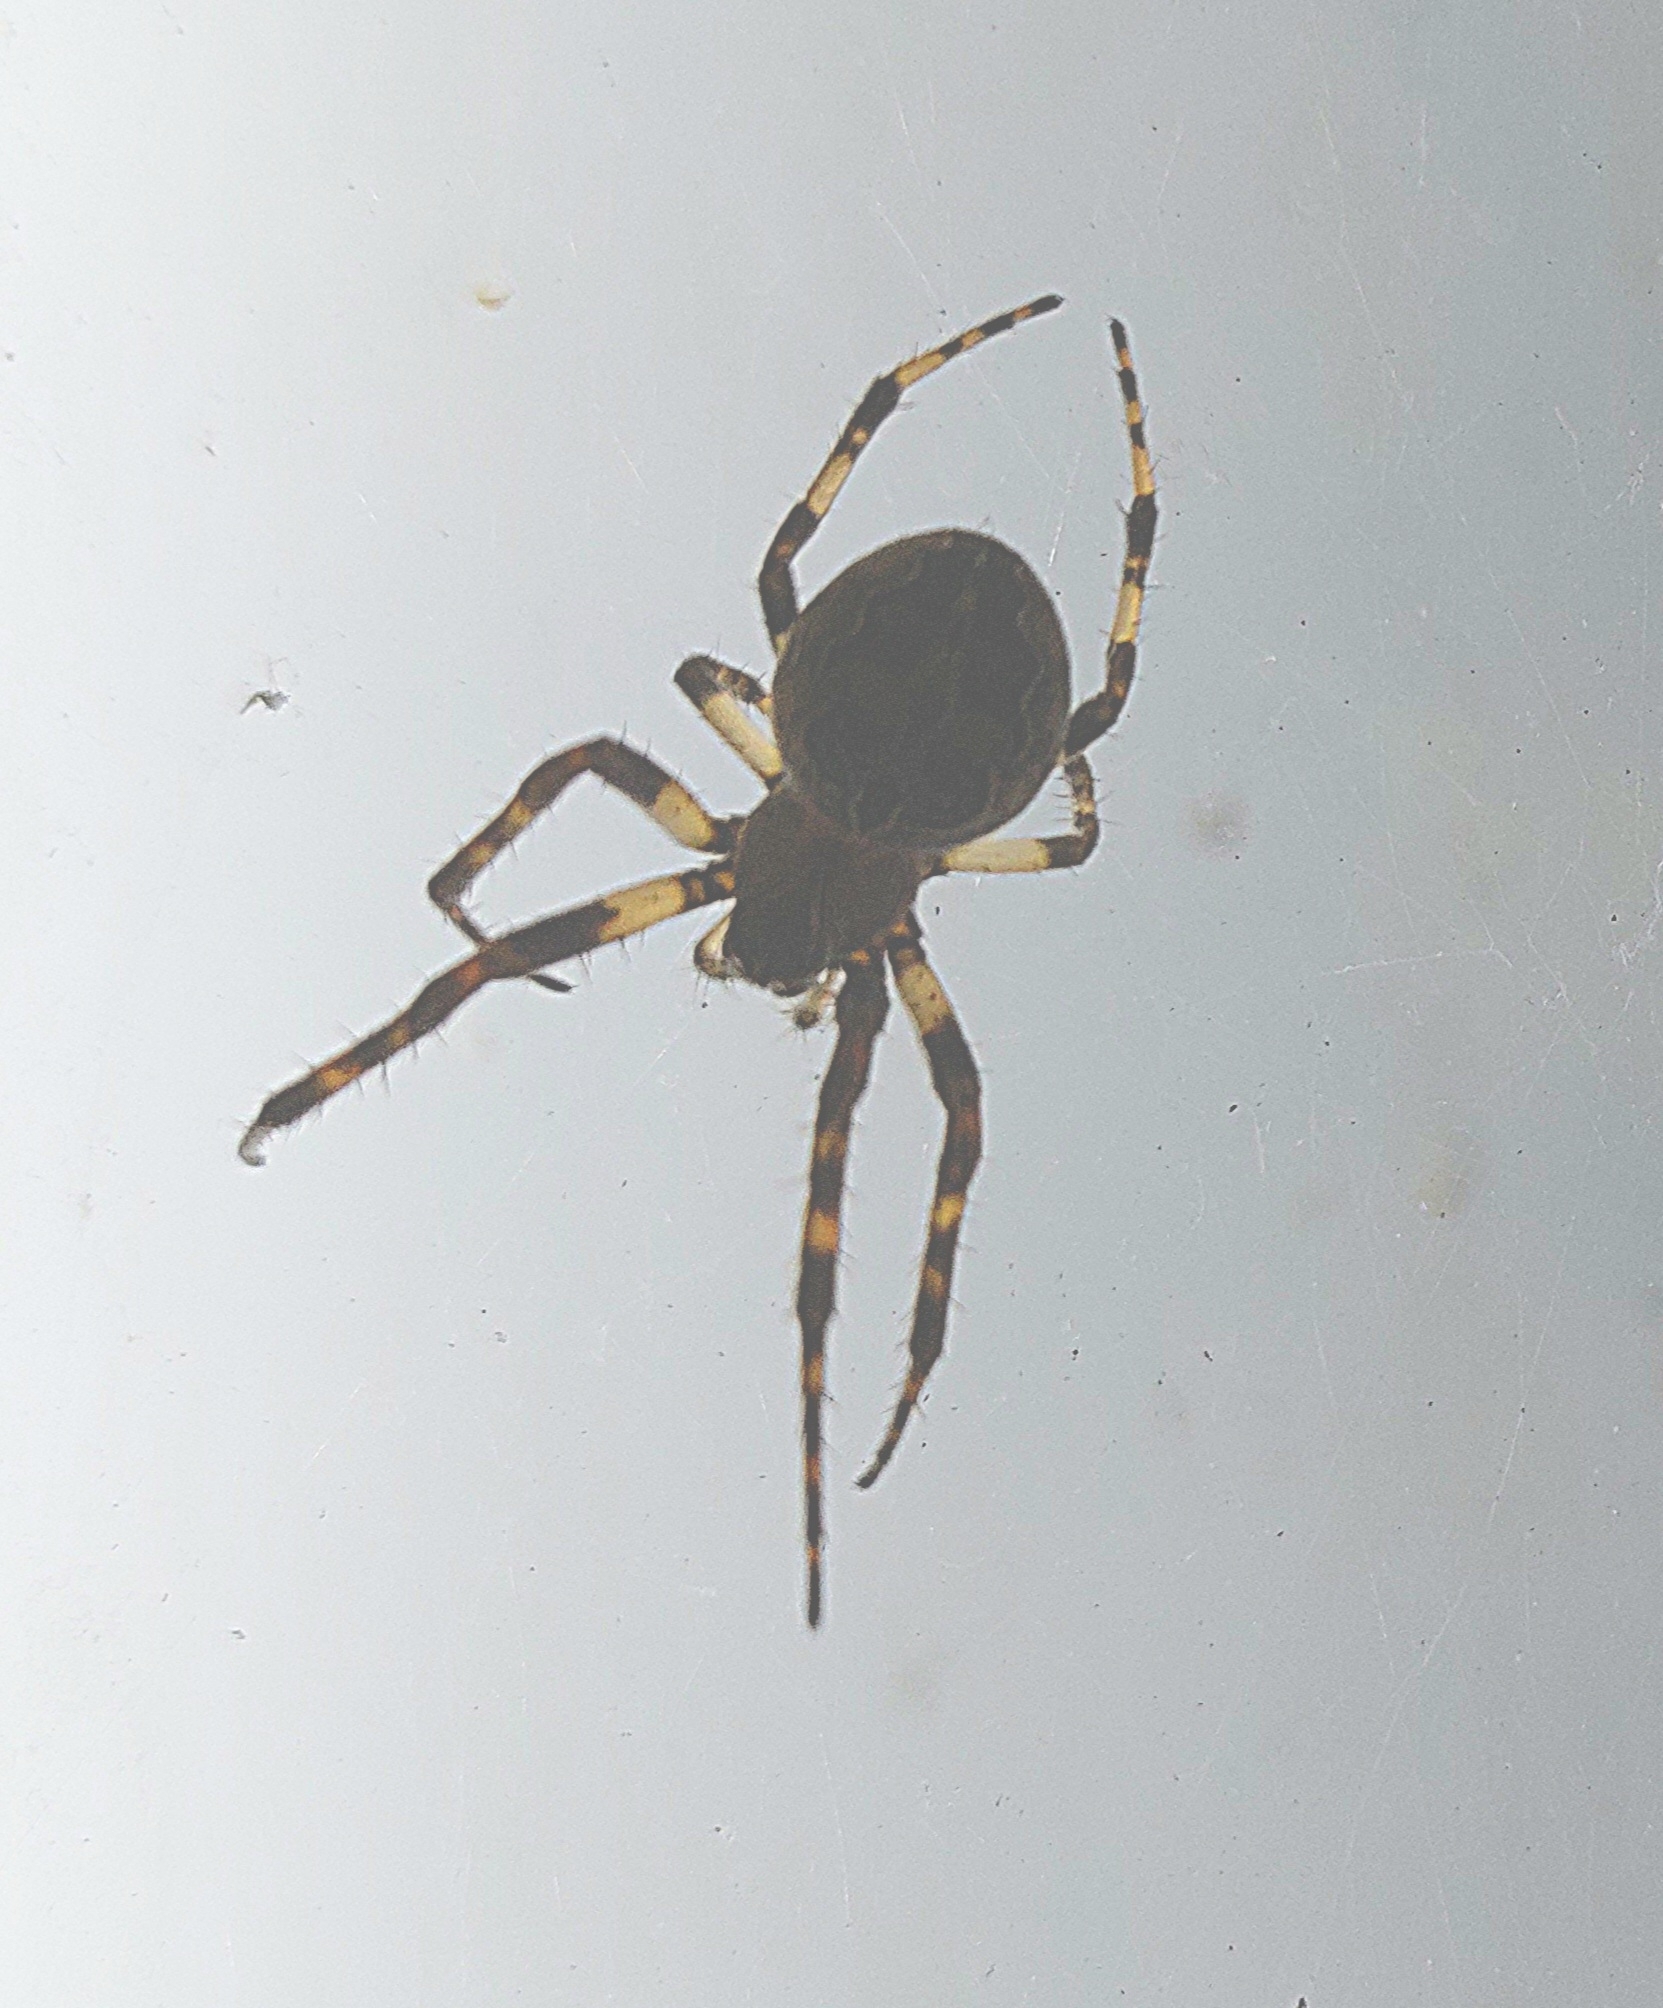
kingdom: Animalia
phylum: Arthropoda
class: Arachnida
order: Araneae
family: Araneidae
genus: Larinioides
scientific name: Larinioides sclopetarius
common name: Bridge orbweaver
